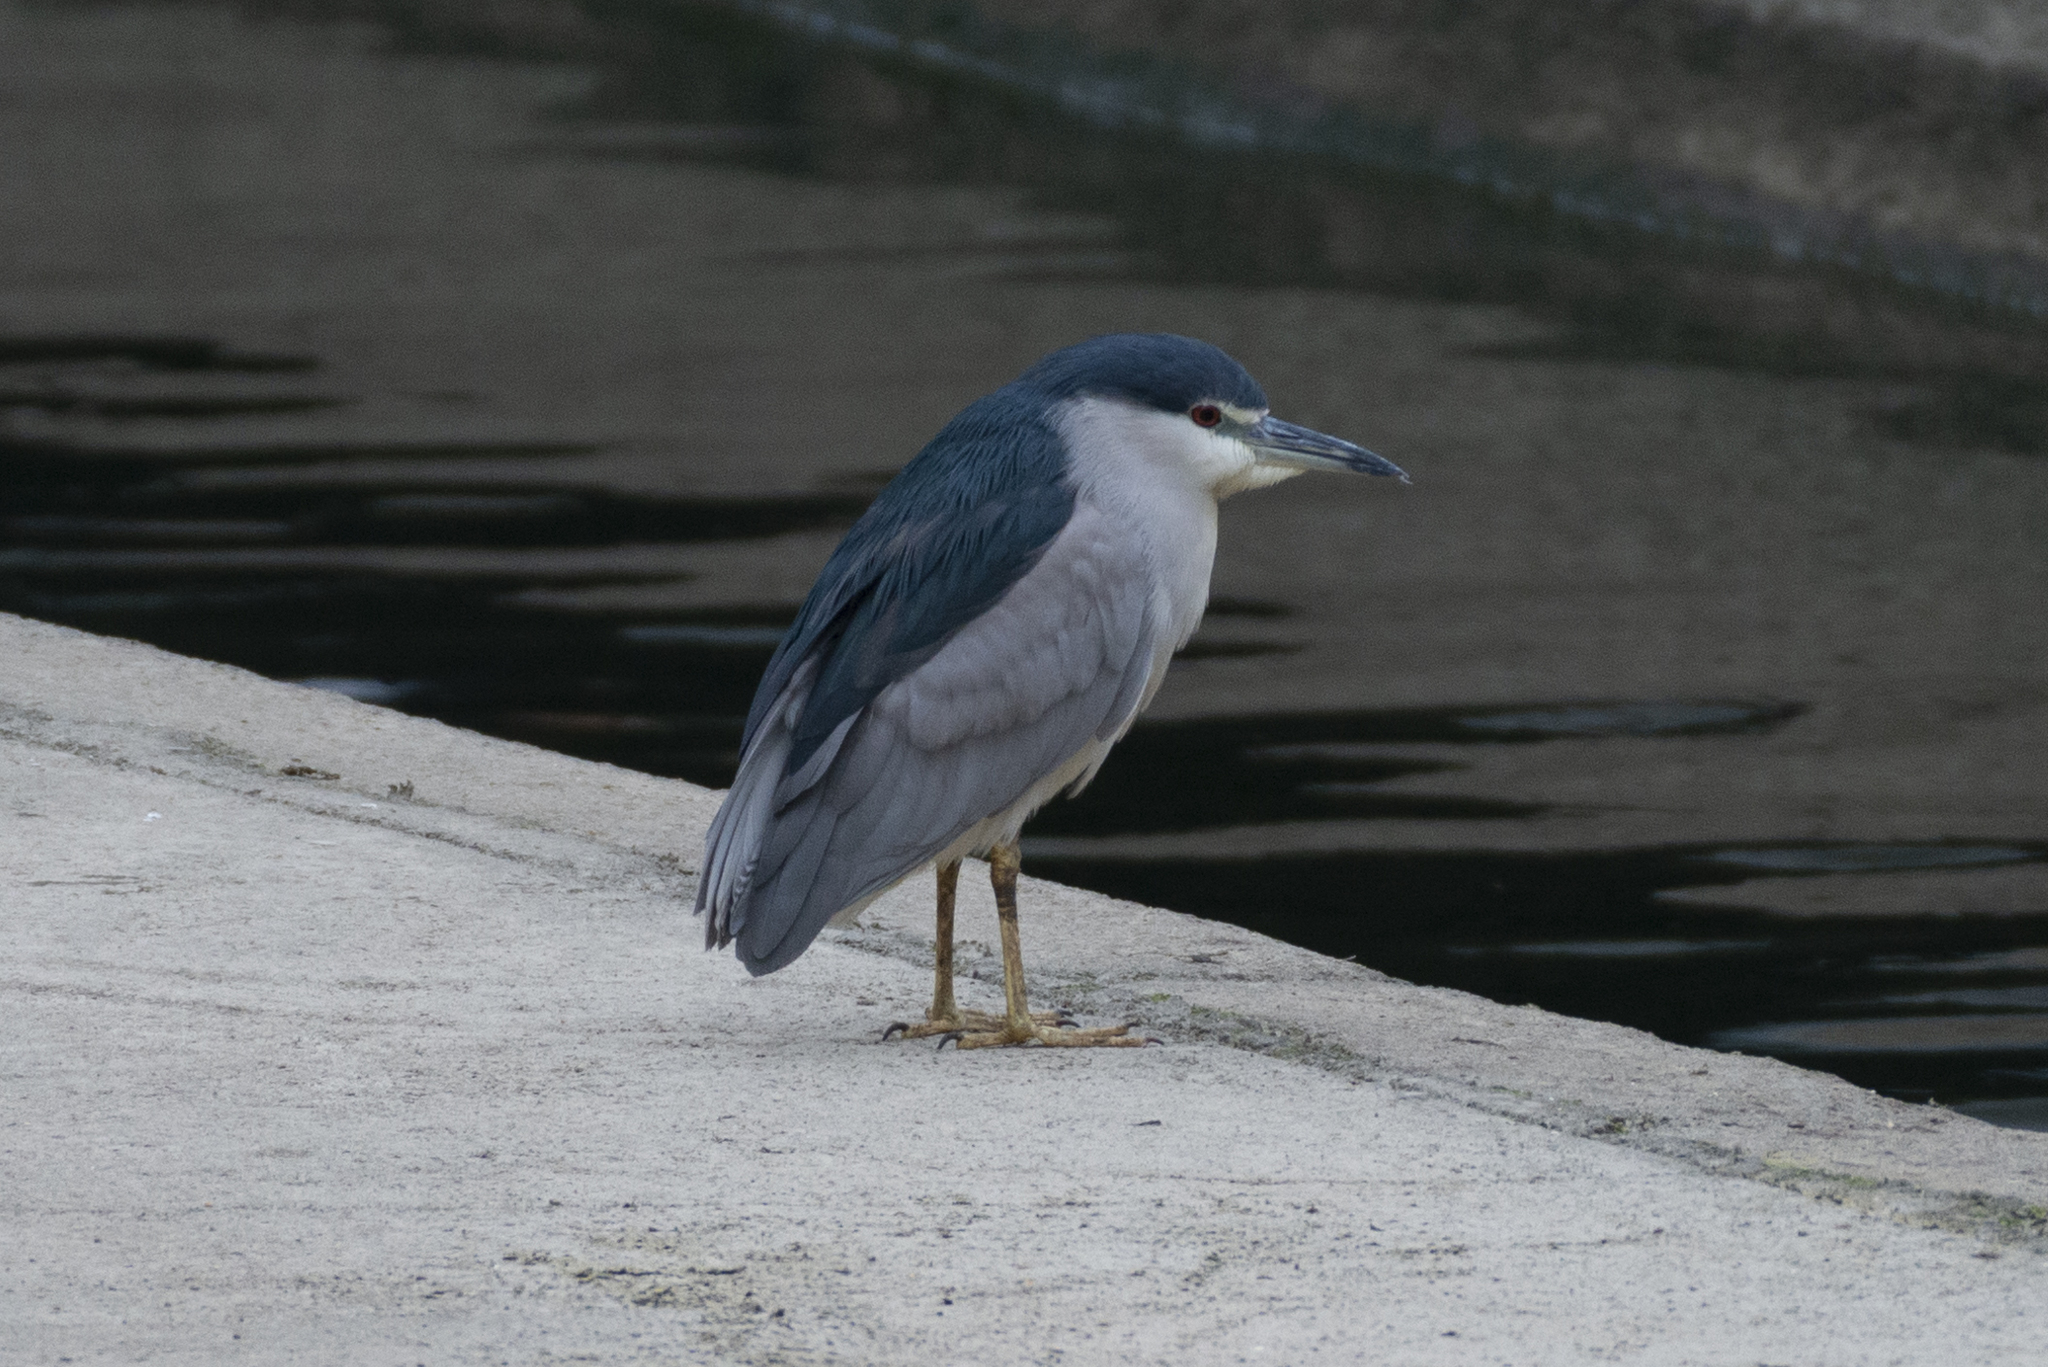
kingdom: Animalia
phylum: Chordata
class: Aves
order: Pelecaniformes
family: Ardeidae
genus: Nycticorax
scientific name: Nycticorax nycticorax
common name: Black-crowned night heron
